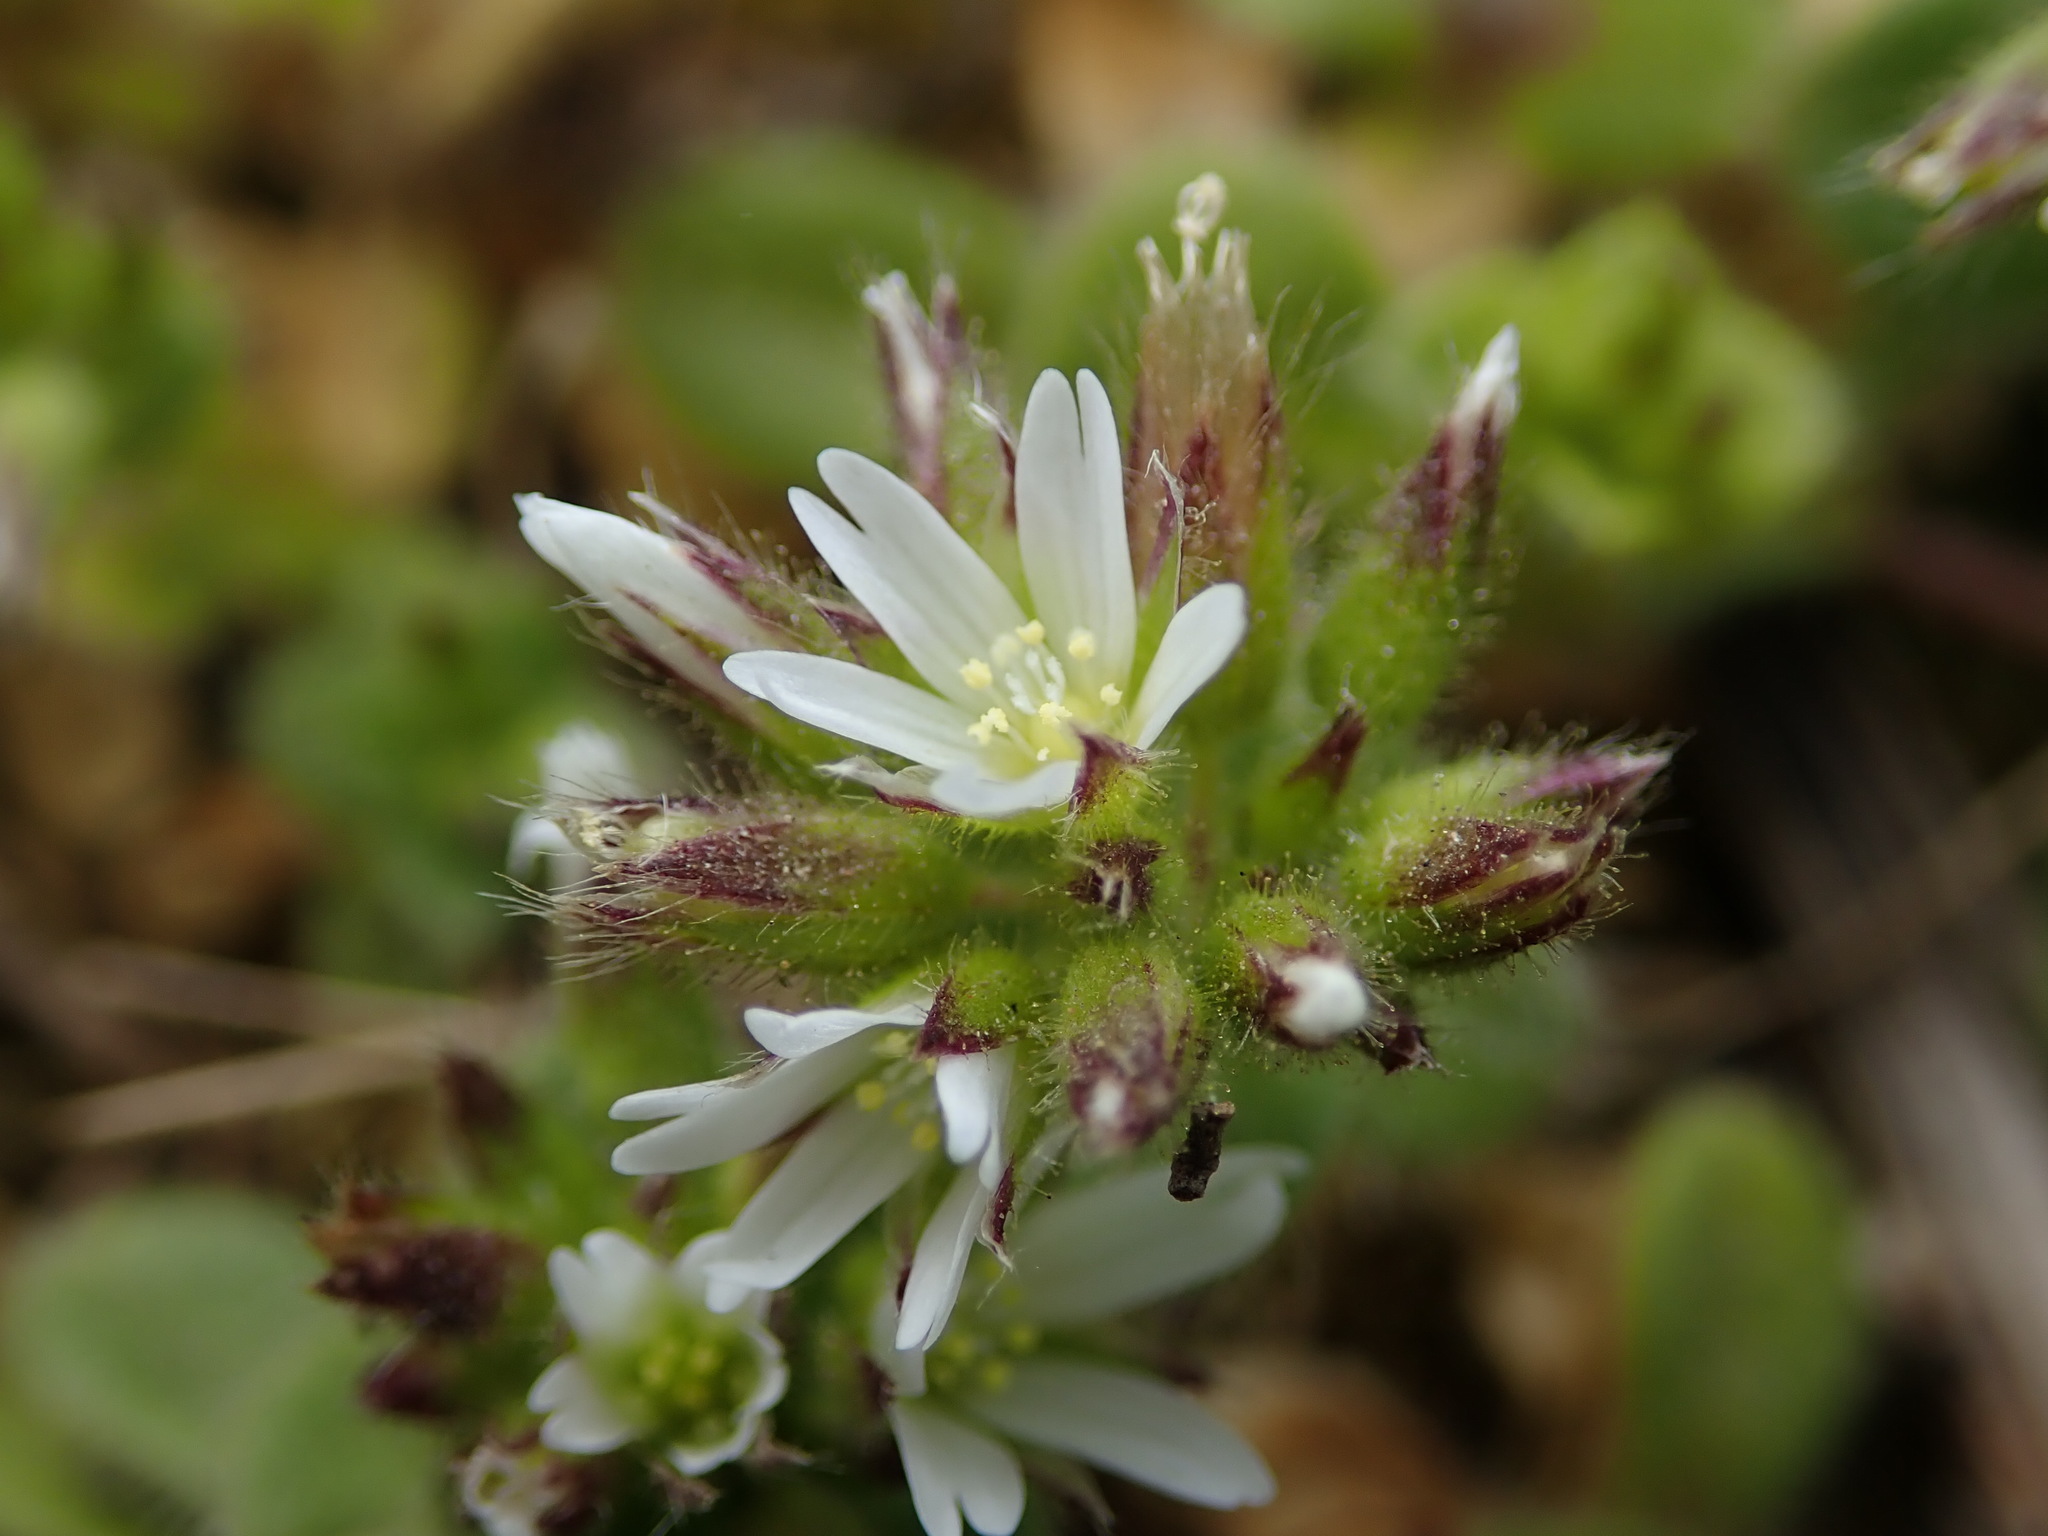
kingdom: Plantae
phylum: Tracheophyta
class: Magnoliopsida
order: Caryophyllales
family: Caryophyllaceae
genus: Cerastium
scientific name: Cerastium glomeratum
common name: Sticky chickweed
